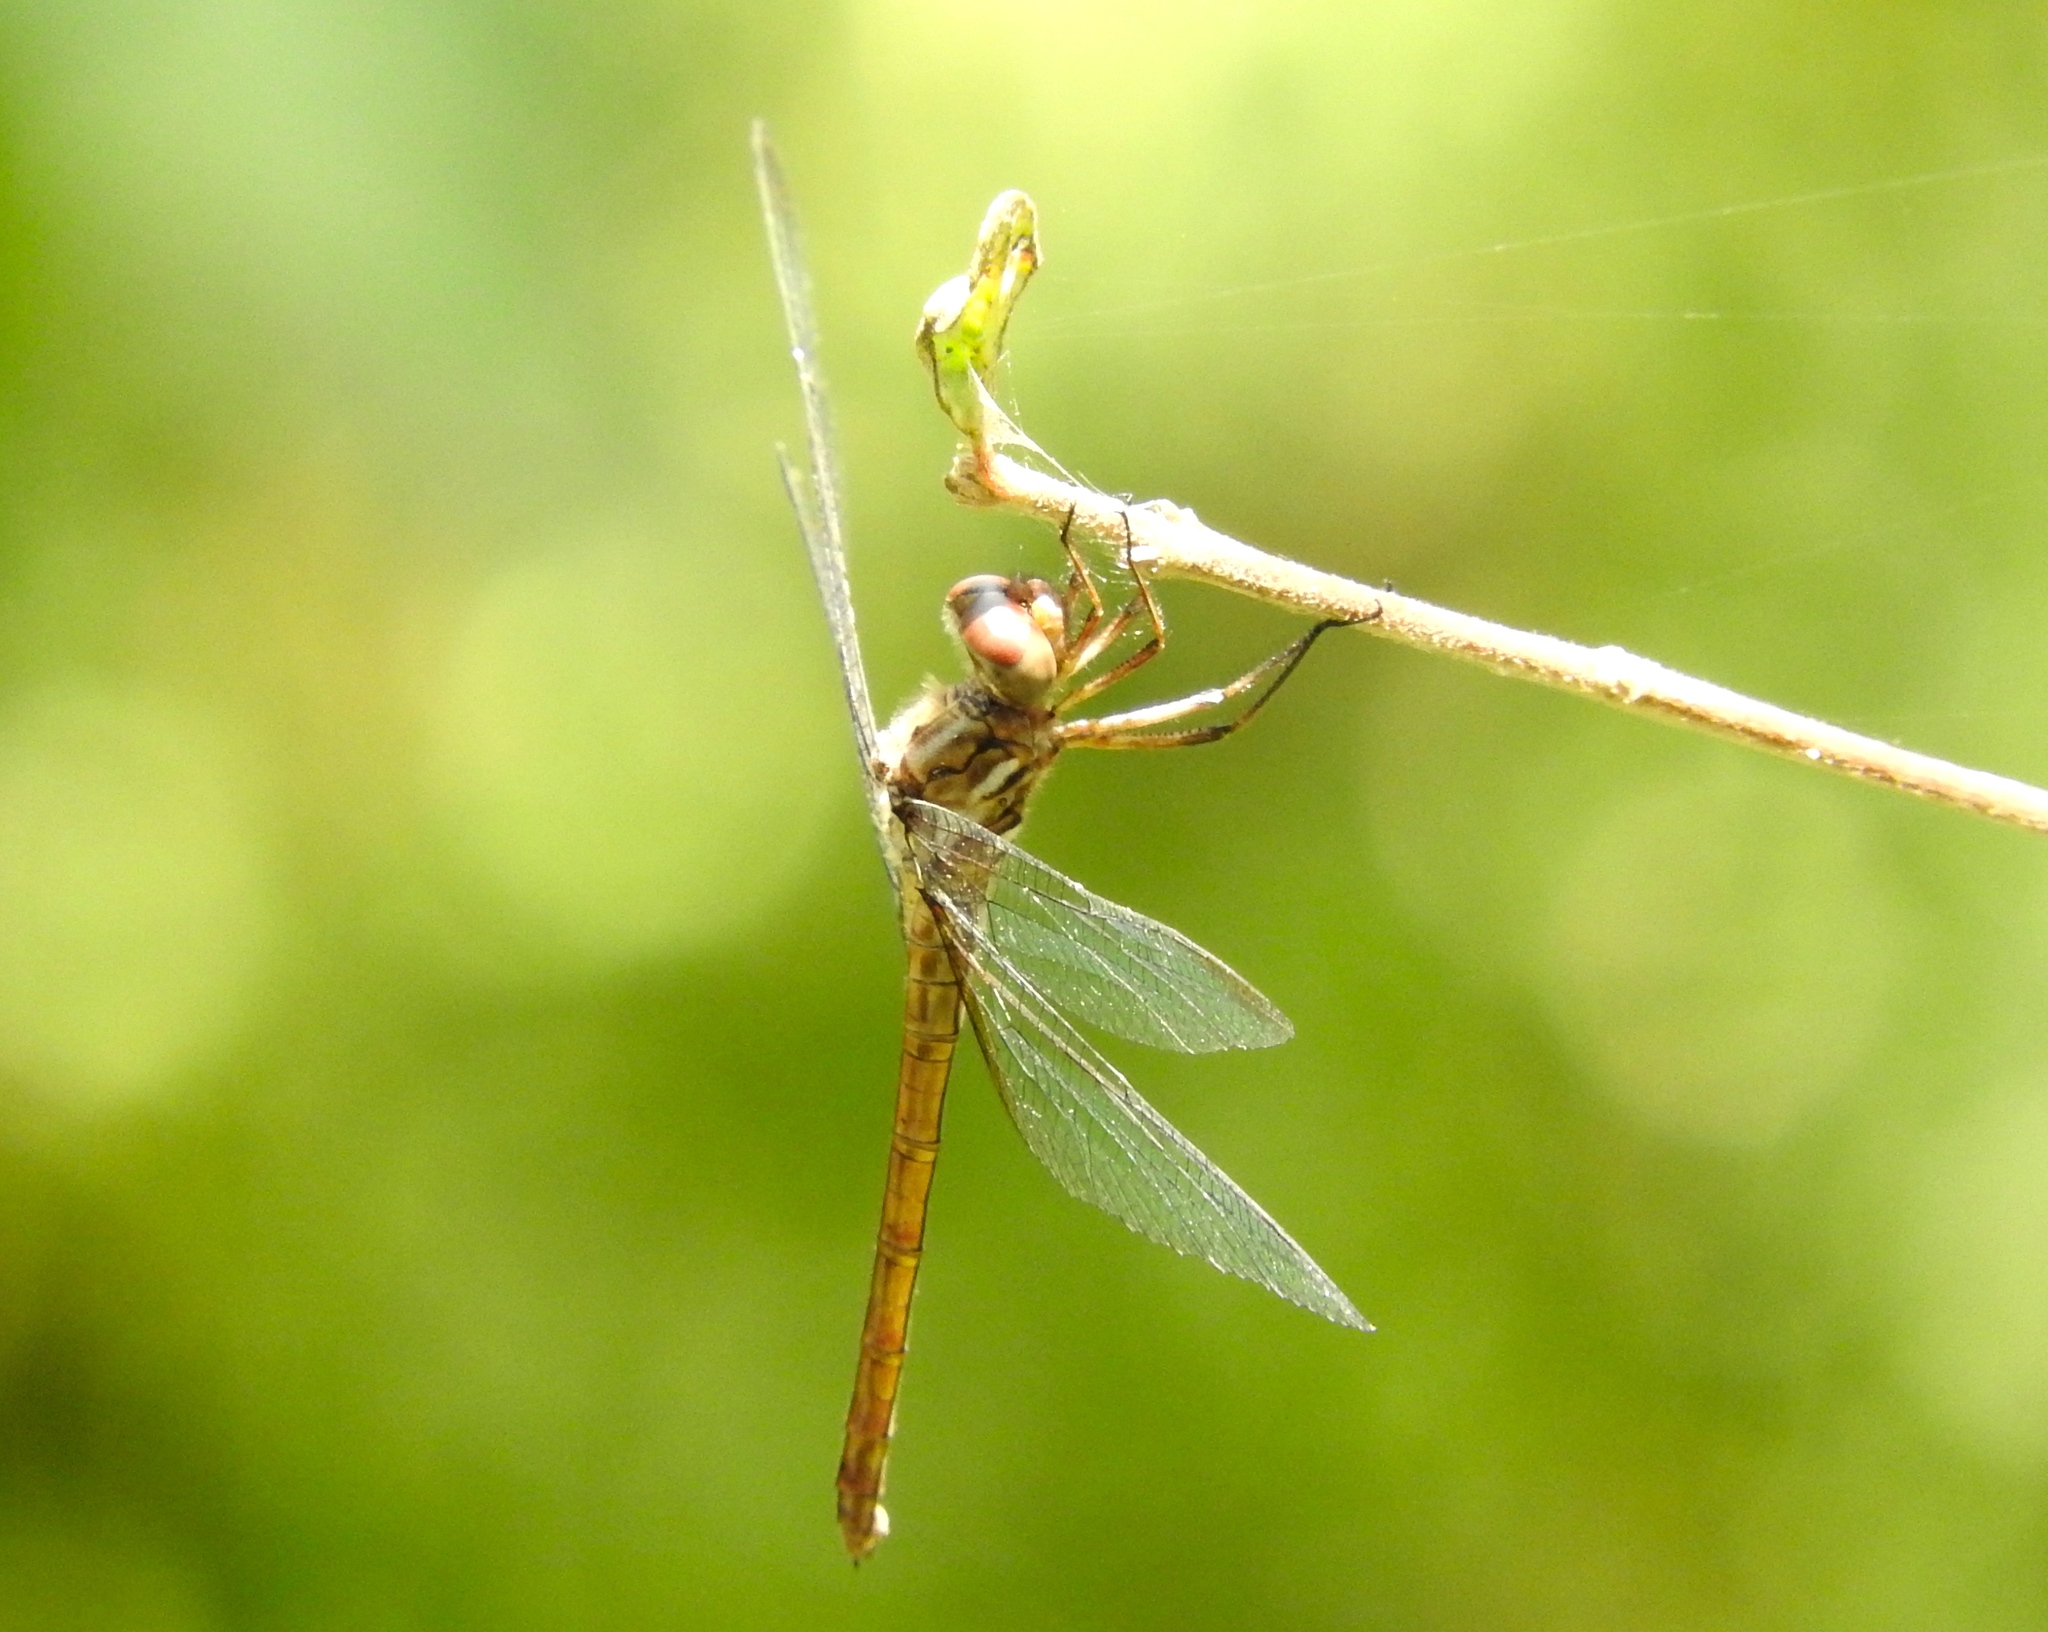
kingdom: Animalia
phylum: Arthropoda
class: Insecta
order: Odonata
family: Libellulidae
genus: Macrothemis
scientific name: Macrothemis inacuta
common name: Straw-colored sylph
